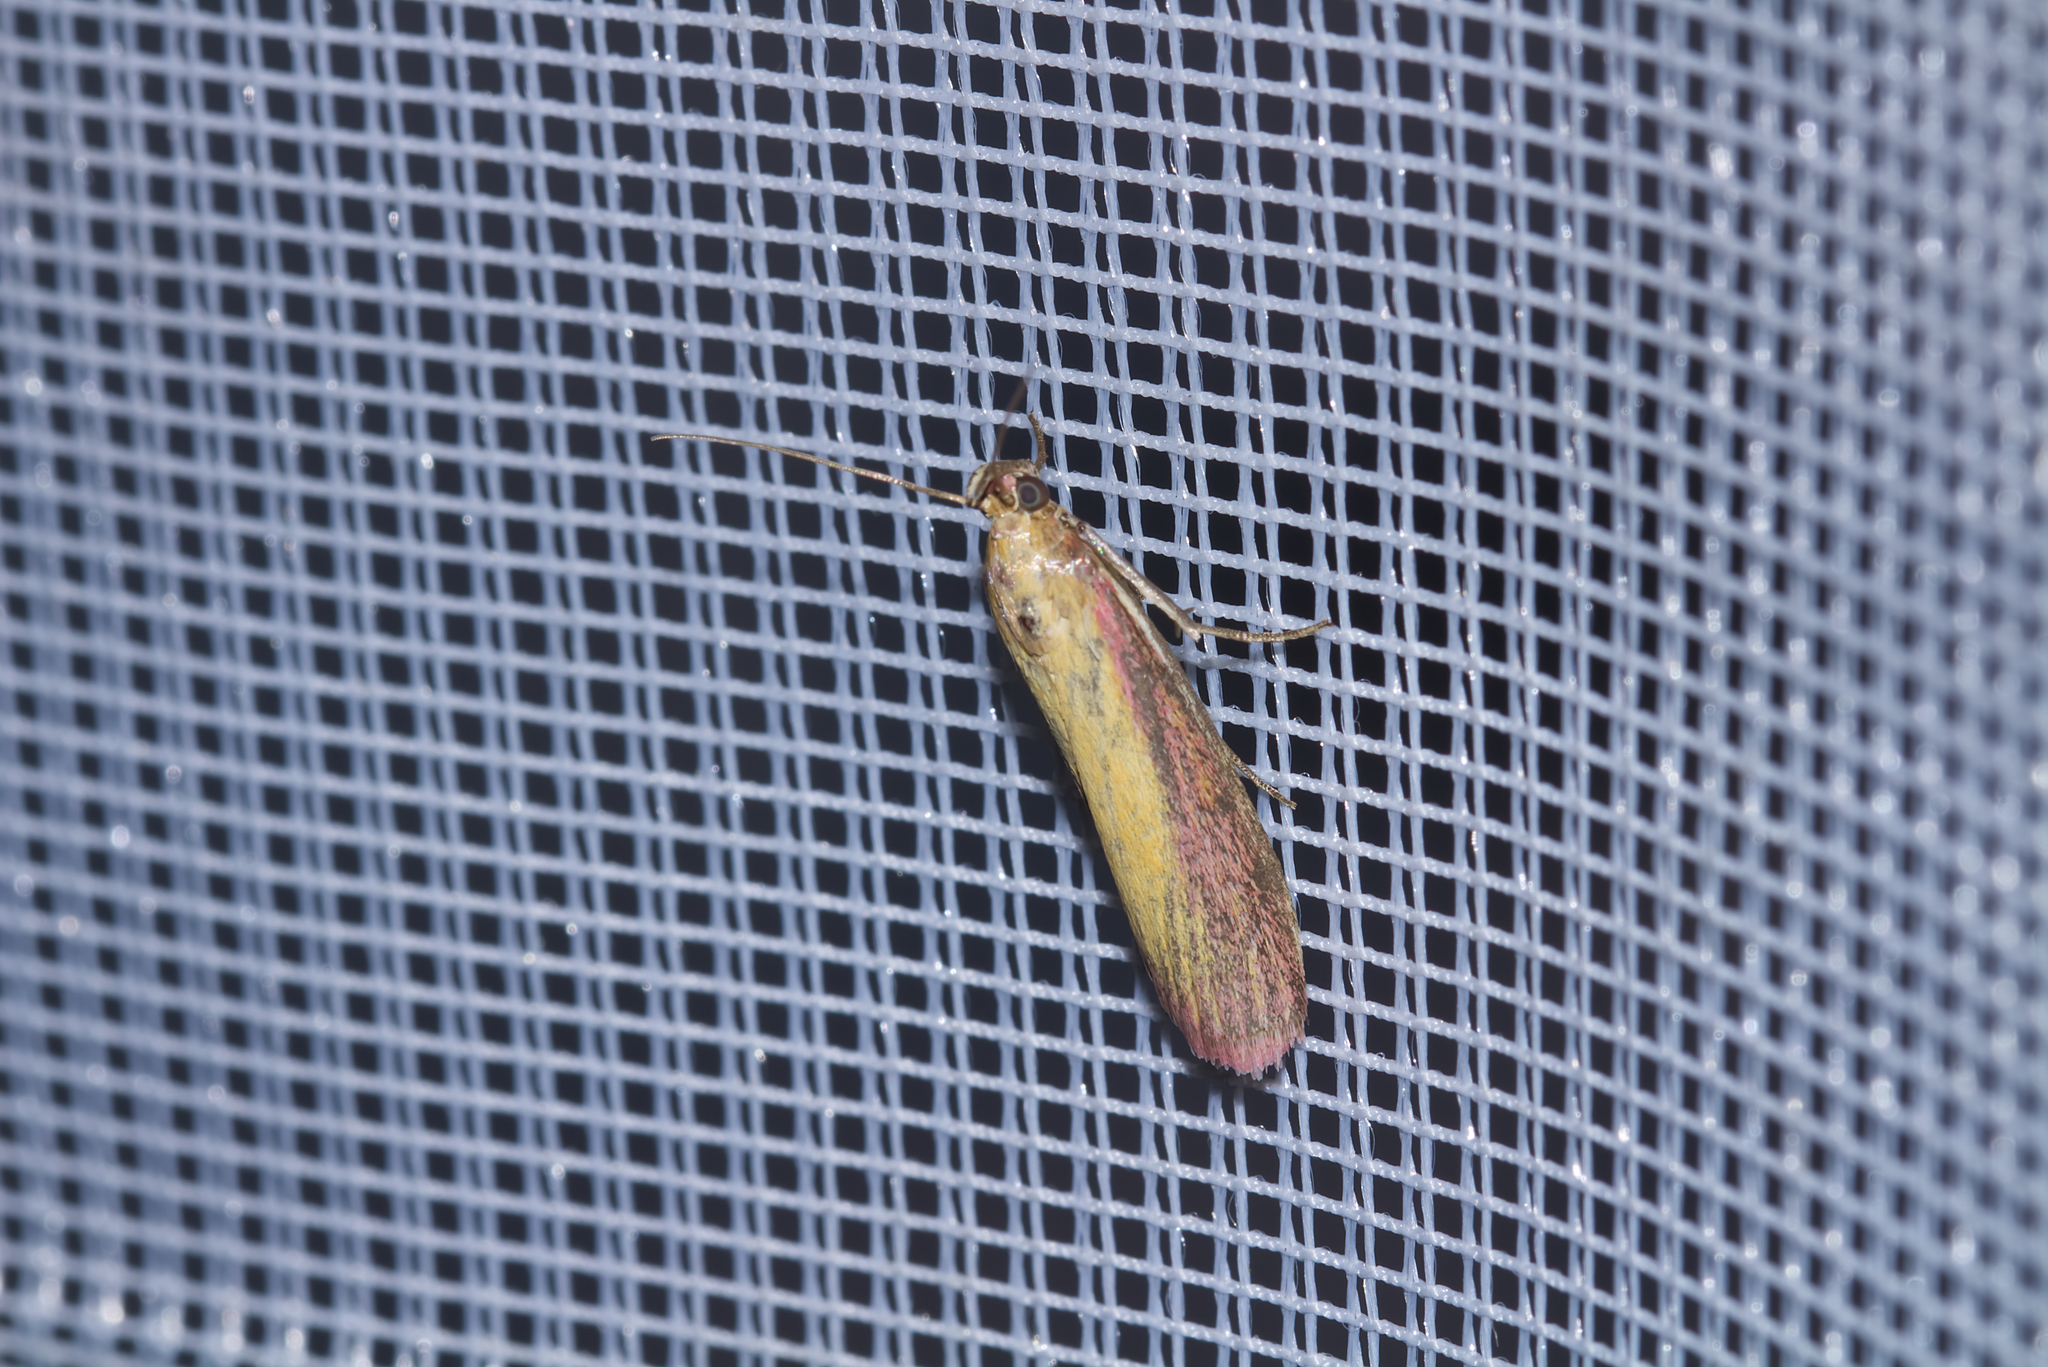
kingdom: Animalia
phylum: Arthropoda
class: Insecta
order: Lepidoptera
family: Pyralidae
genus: Oncocera
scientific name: Oncocera semirubella
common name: Rosy-striped knot-horn
